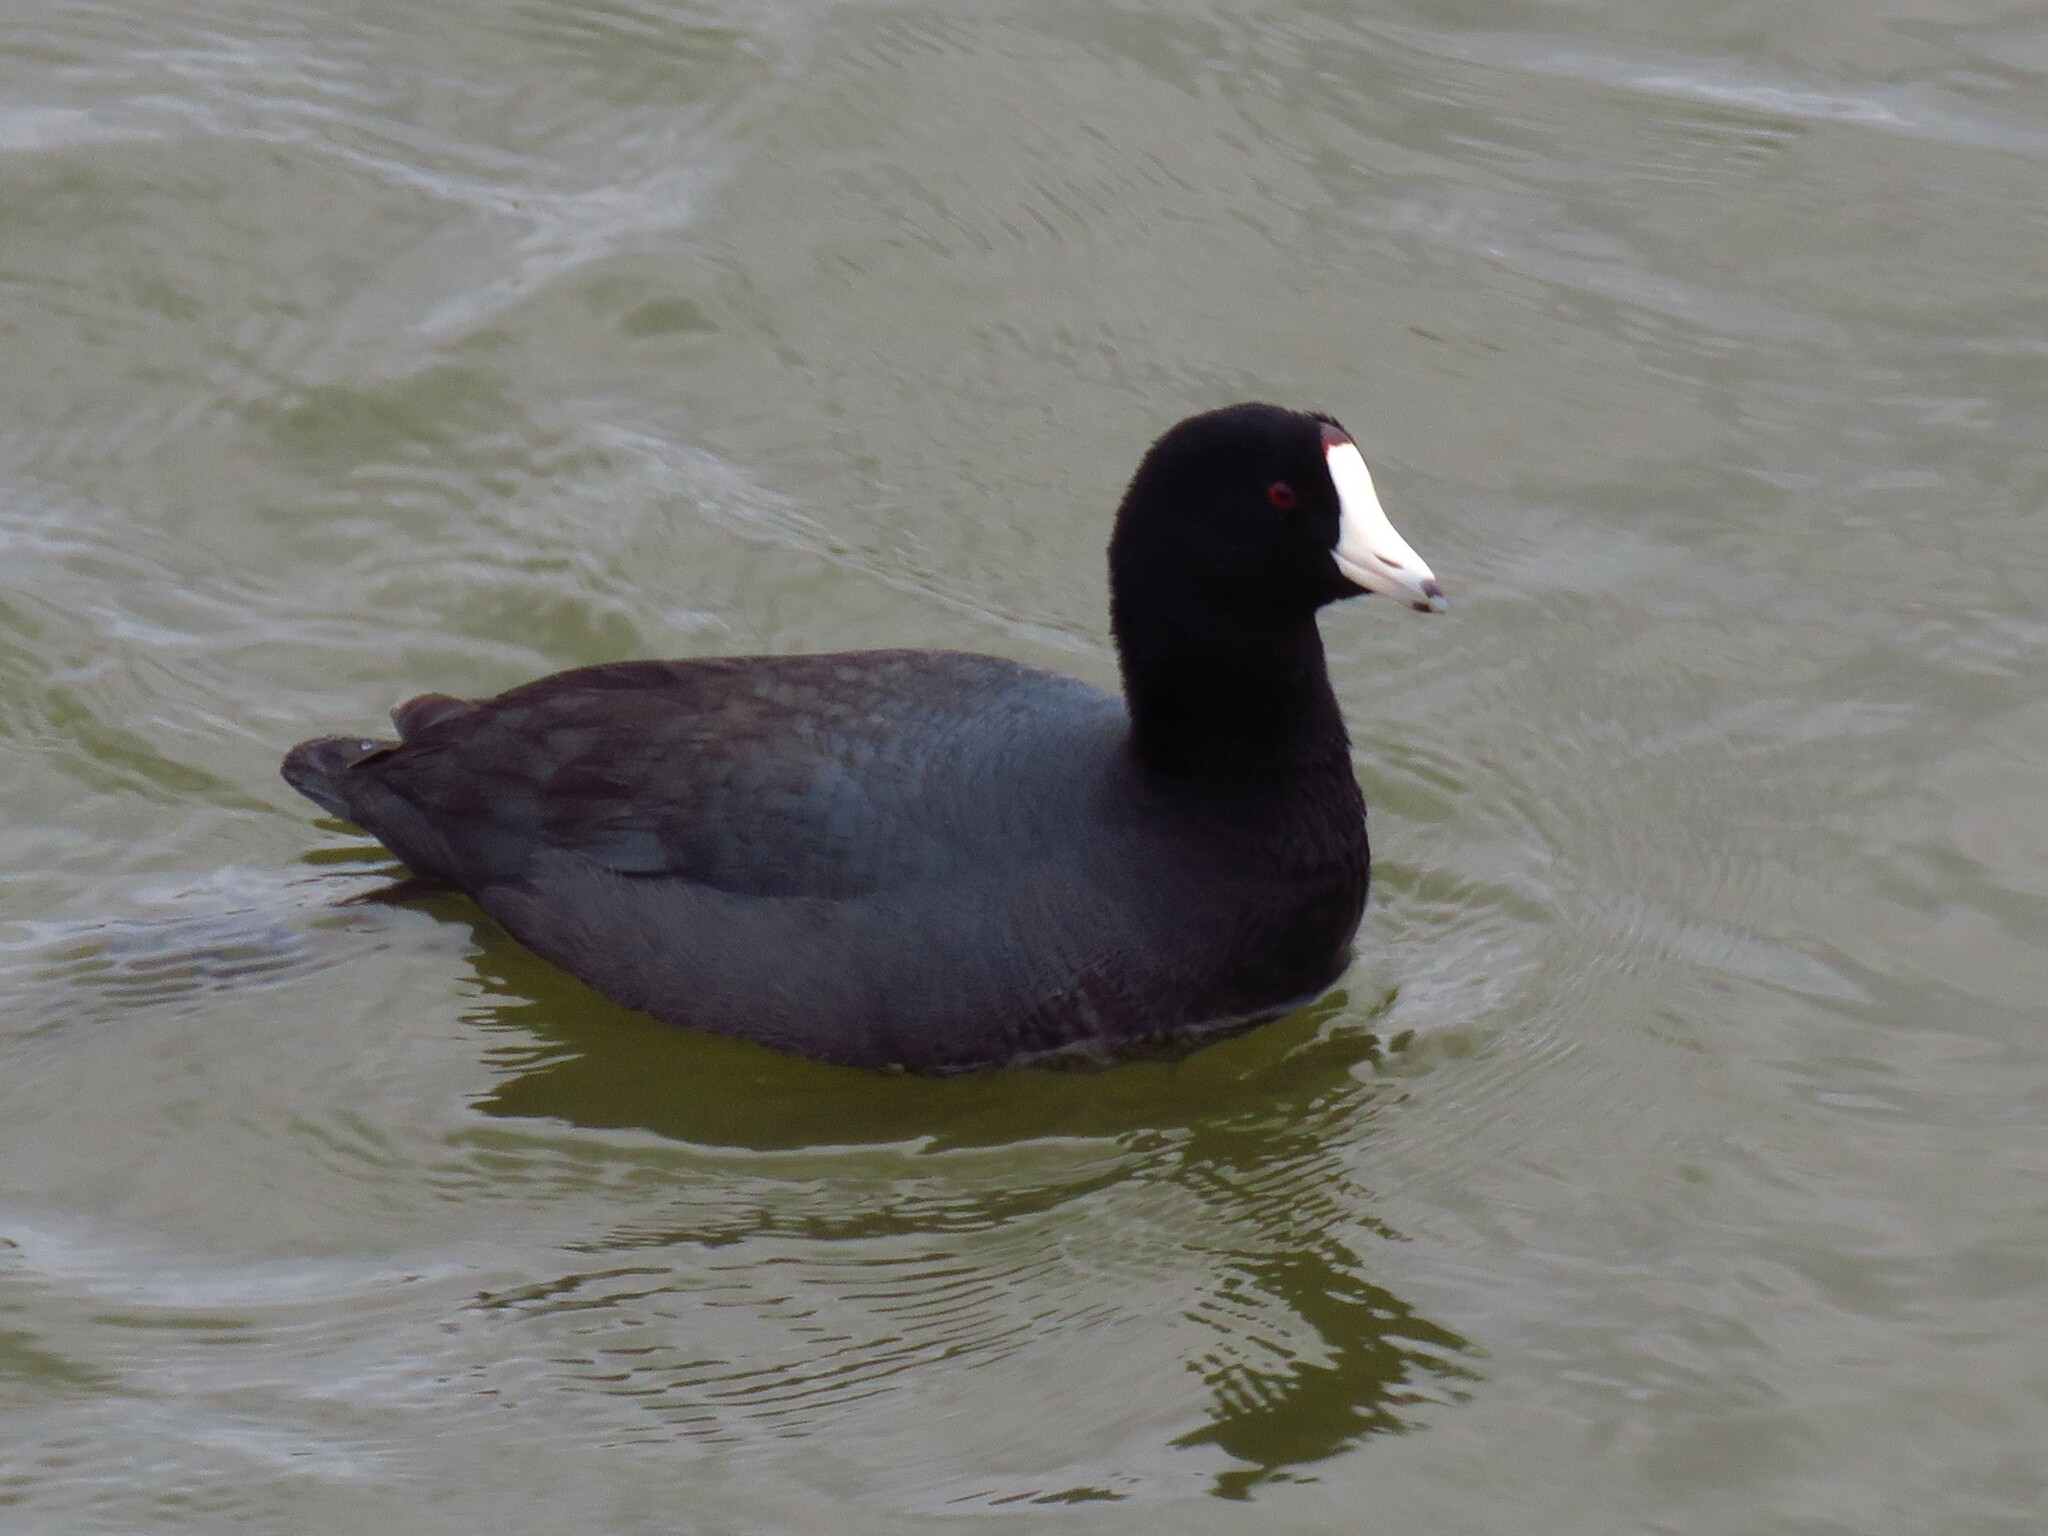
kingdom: Animalia
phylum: Chordata
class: Aves
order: Gruiformes
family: Rallidae
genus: Fulica
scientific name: Fulica americana
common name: American coot
